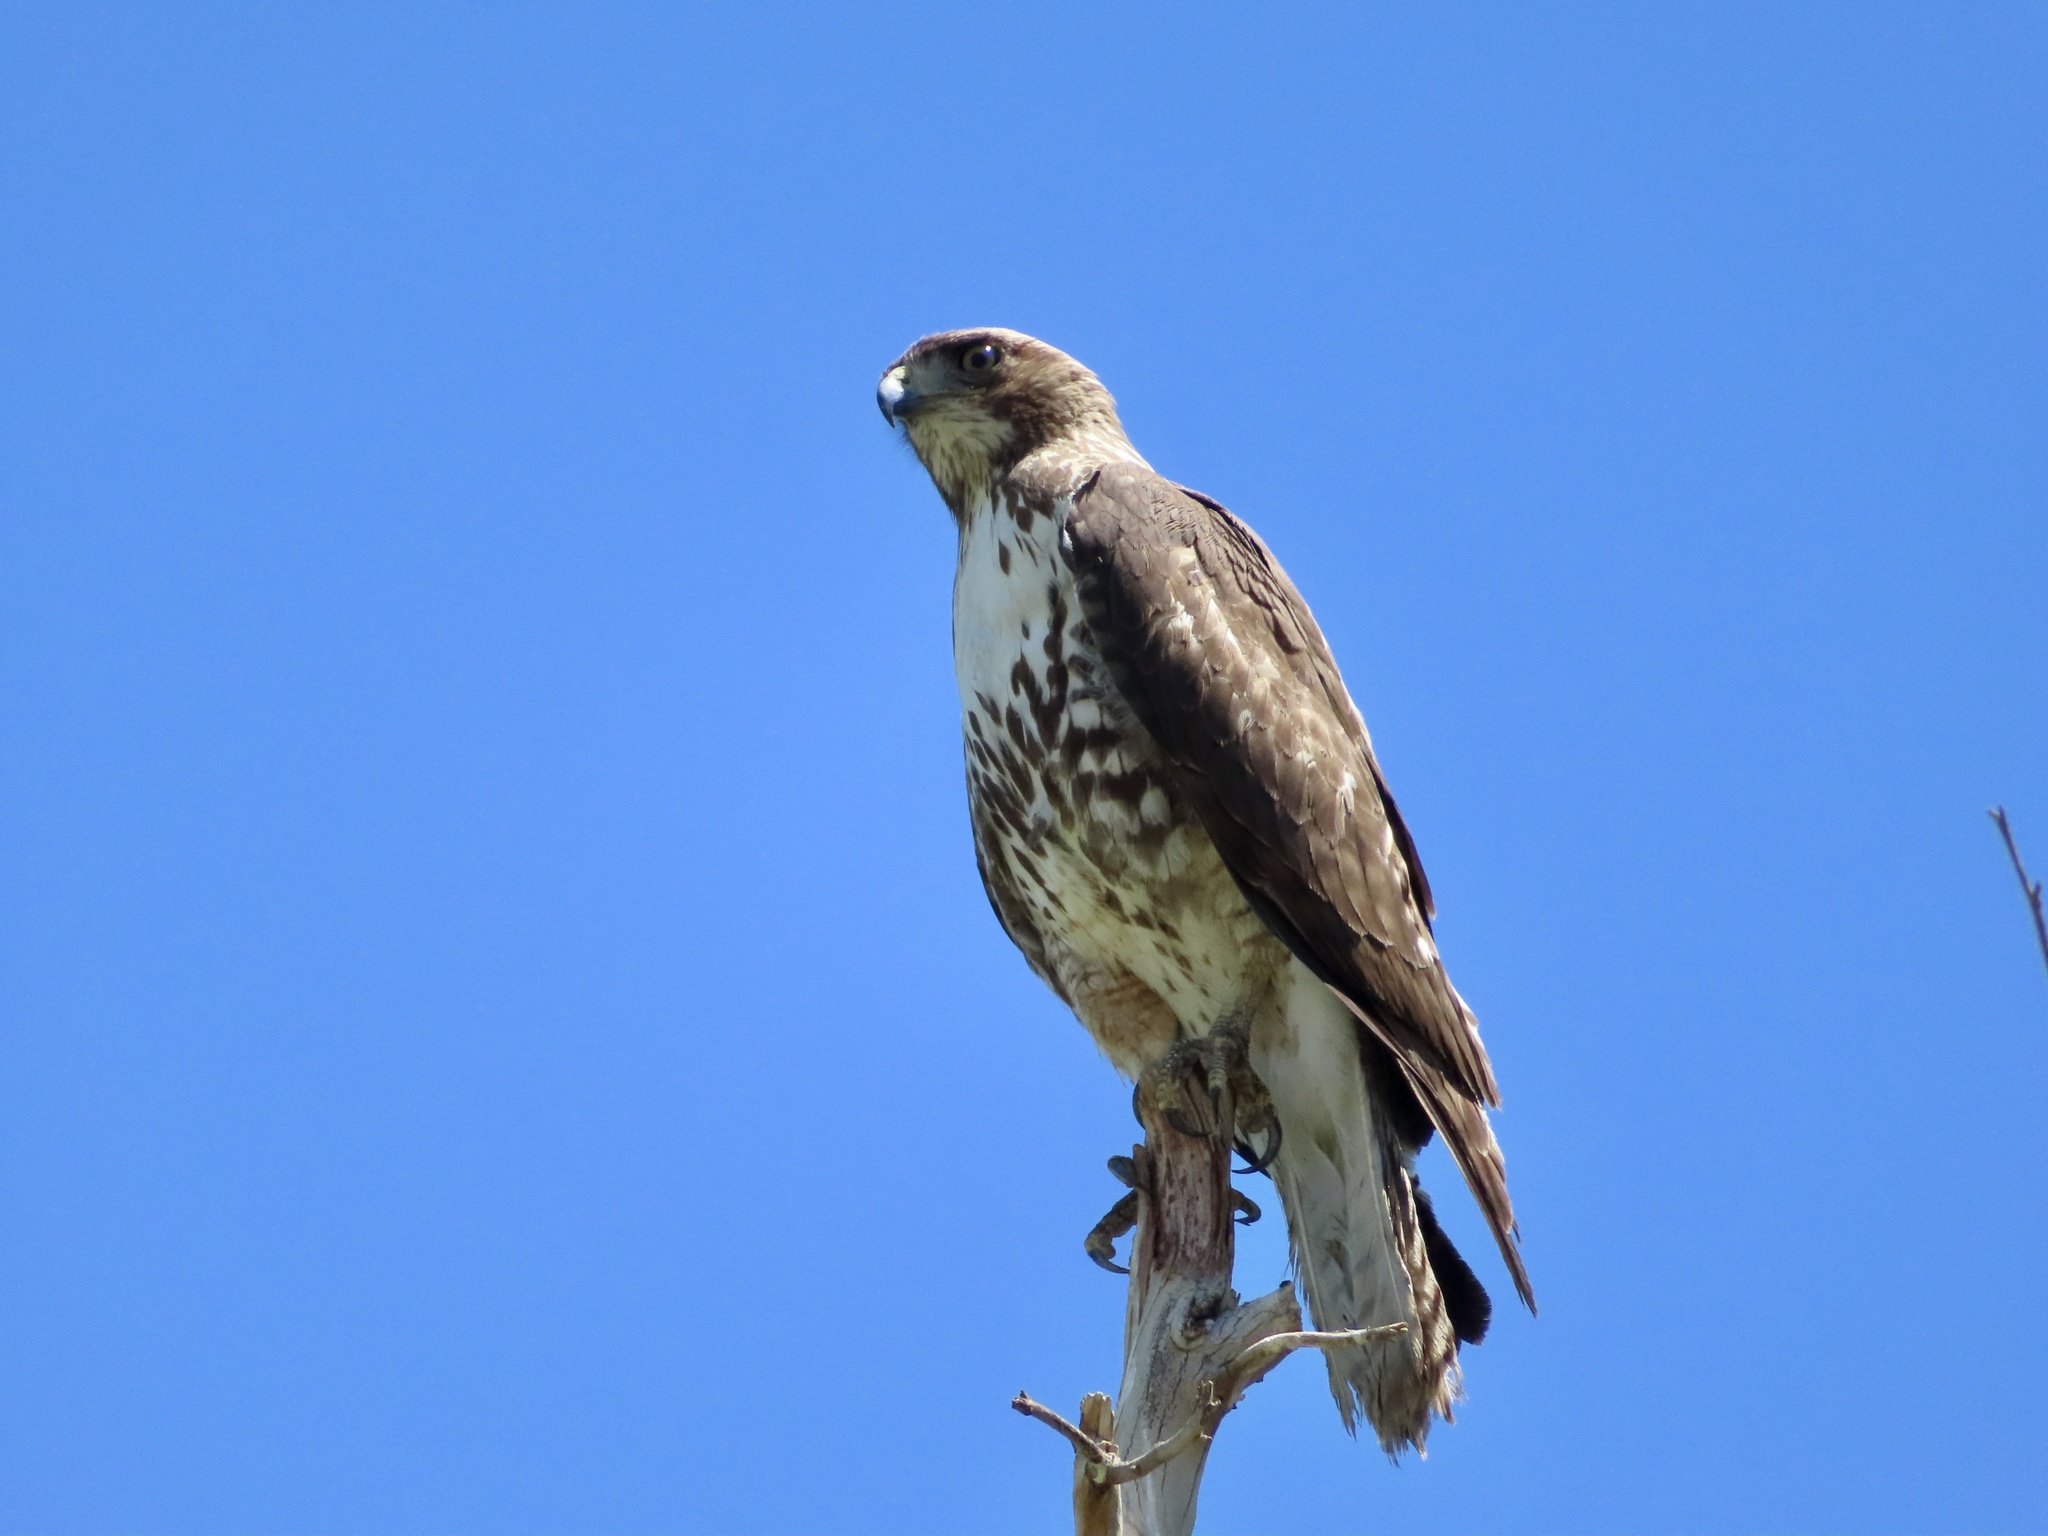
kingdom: Animalia
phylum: Chordata
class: Aves
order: Accipitriformes
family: Accipitridae
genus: Buteo
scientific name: Buteo jamaicensis
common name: Red-tailed hawk
